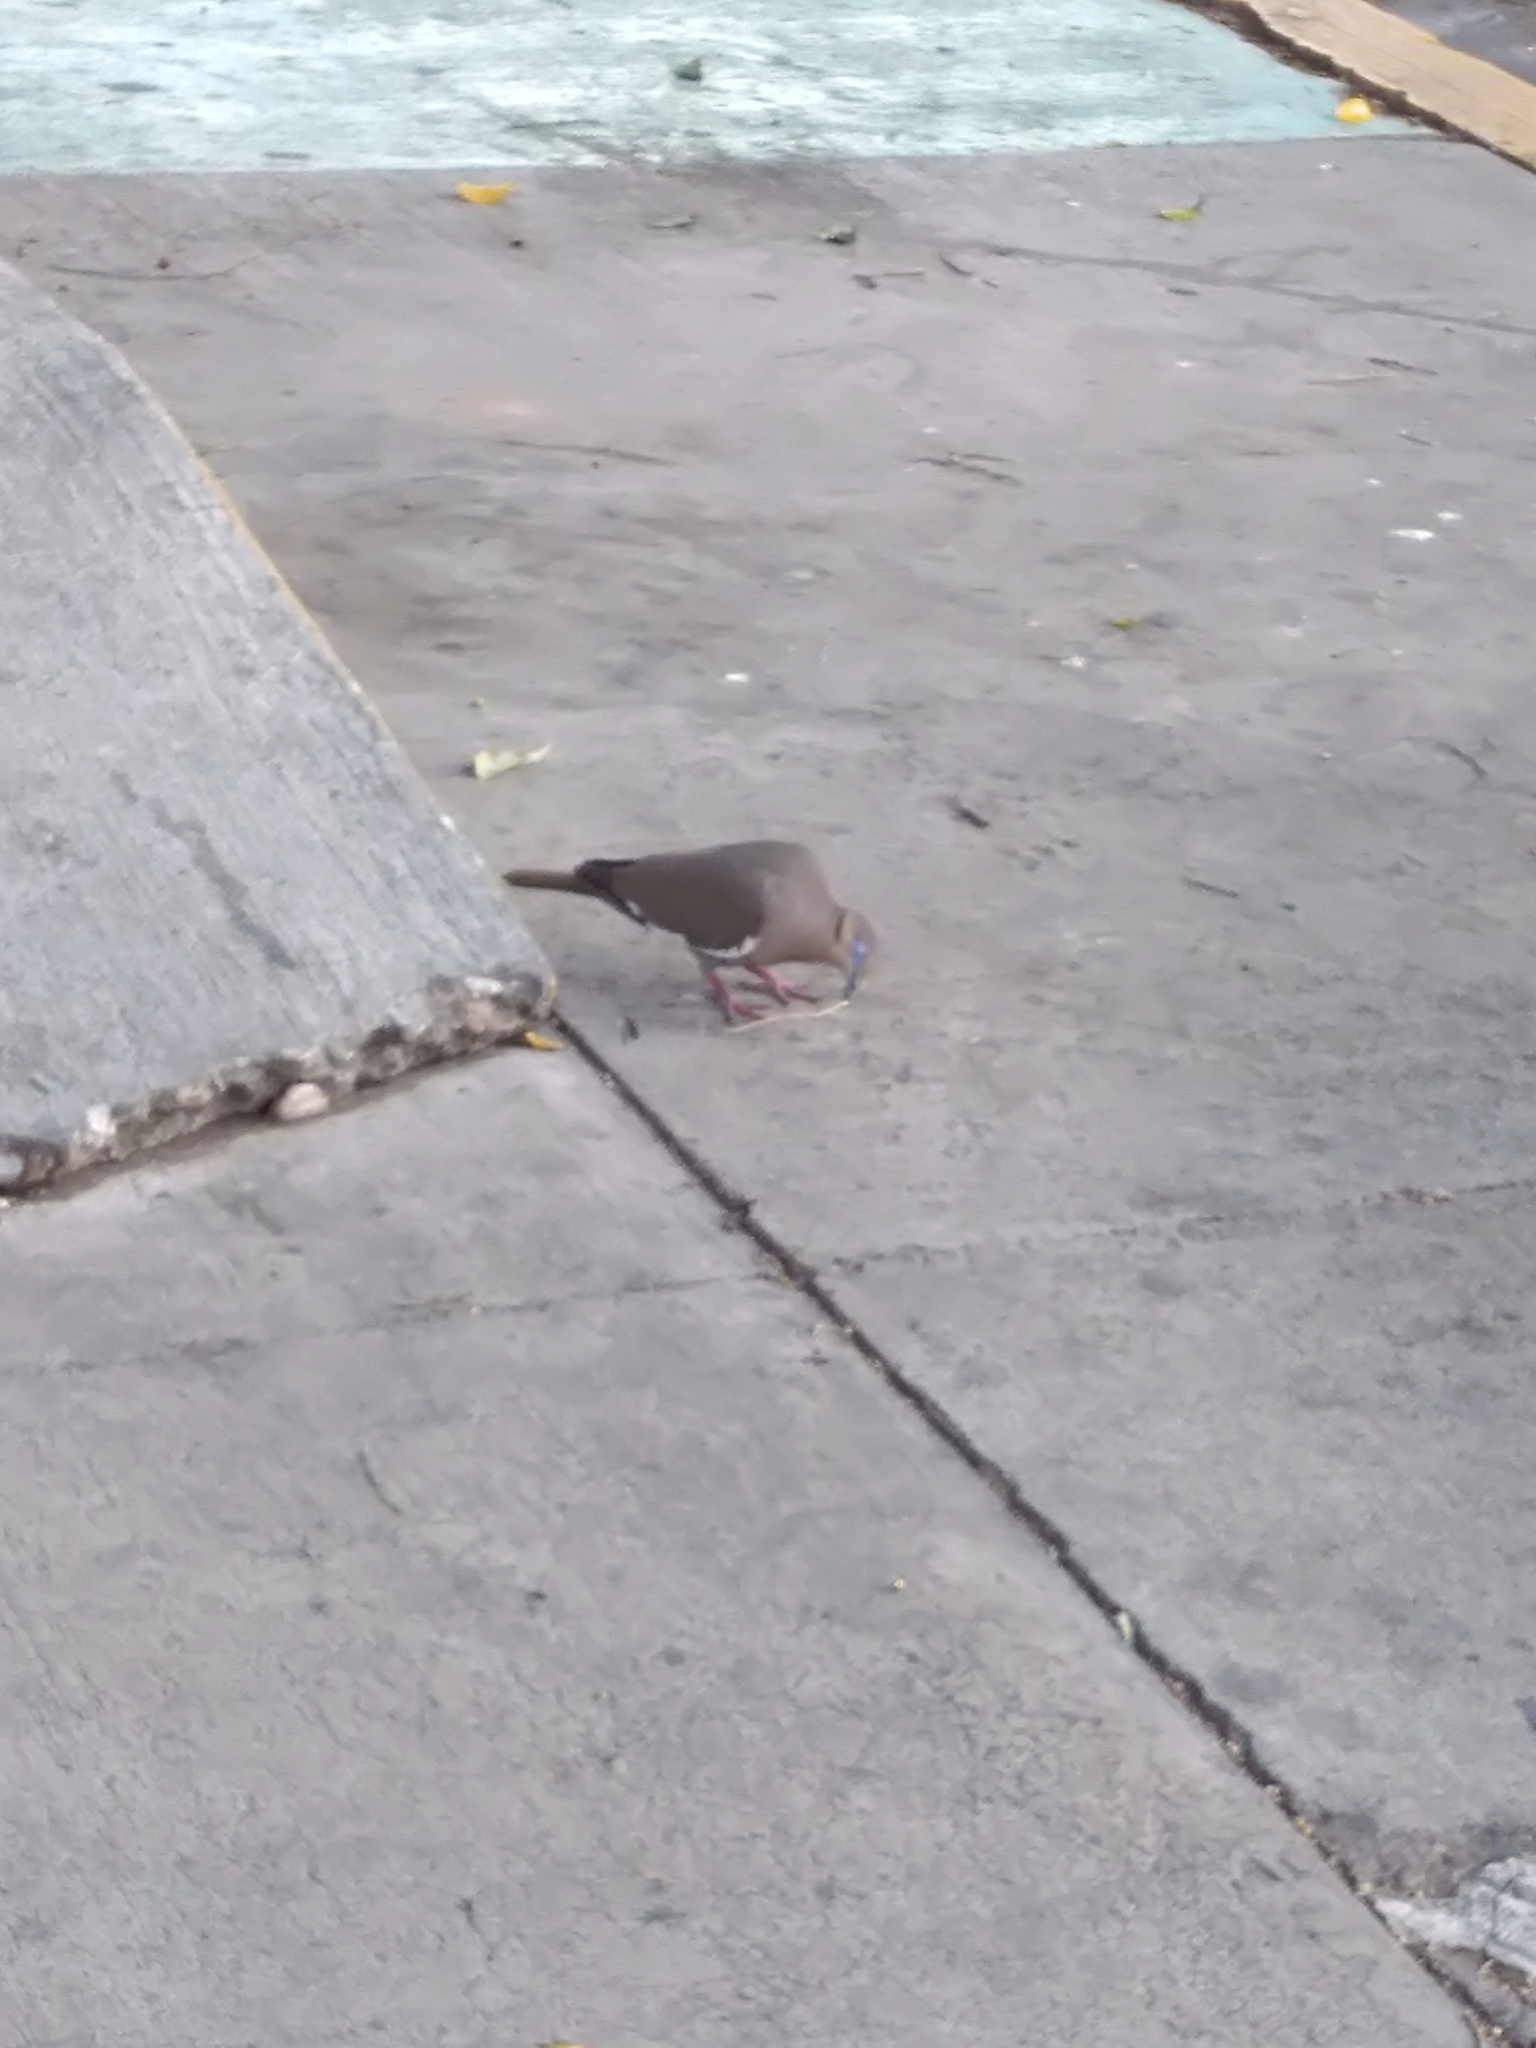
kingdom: Animalia
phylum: Chordata
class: Aves
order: Columbiformes
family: Columbidae
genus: Zenaida
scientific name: Zenaida asiatica
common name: White-winged dove
